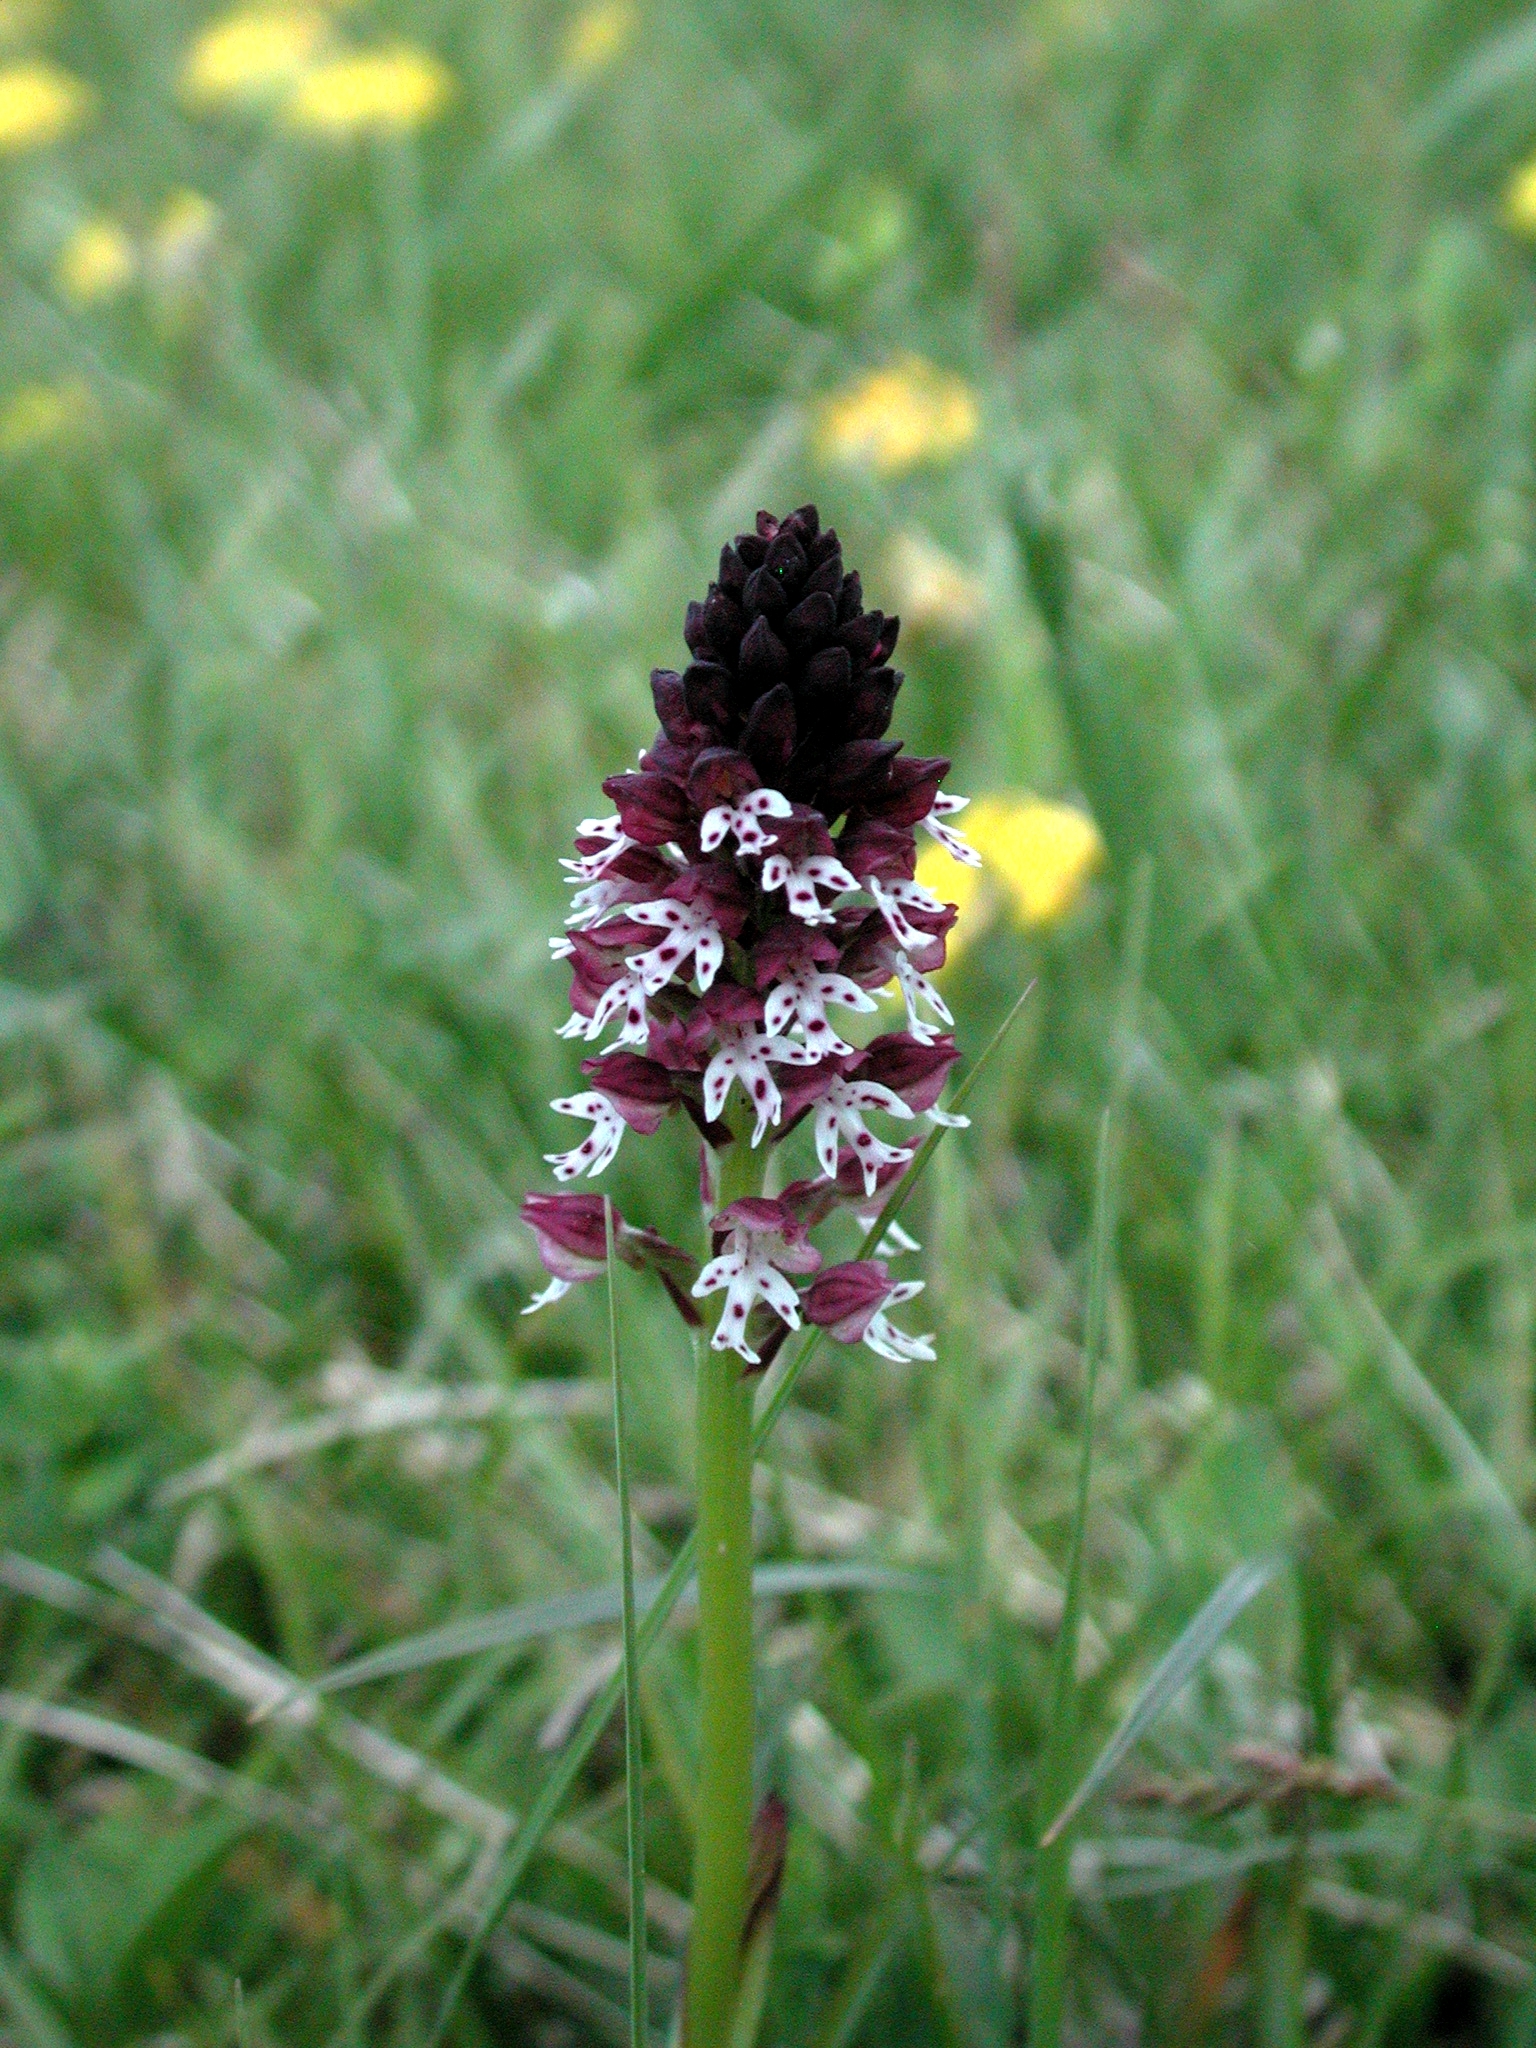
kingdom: Plantae
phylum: Tracheophyta
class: Liliopsida
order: Asparagales
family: Orchidaceae
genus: Neotinea
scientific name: Neotinea ustulata
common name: Burnt orchid
